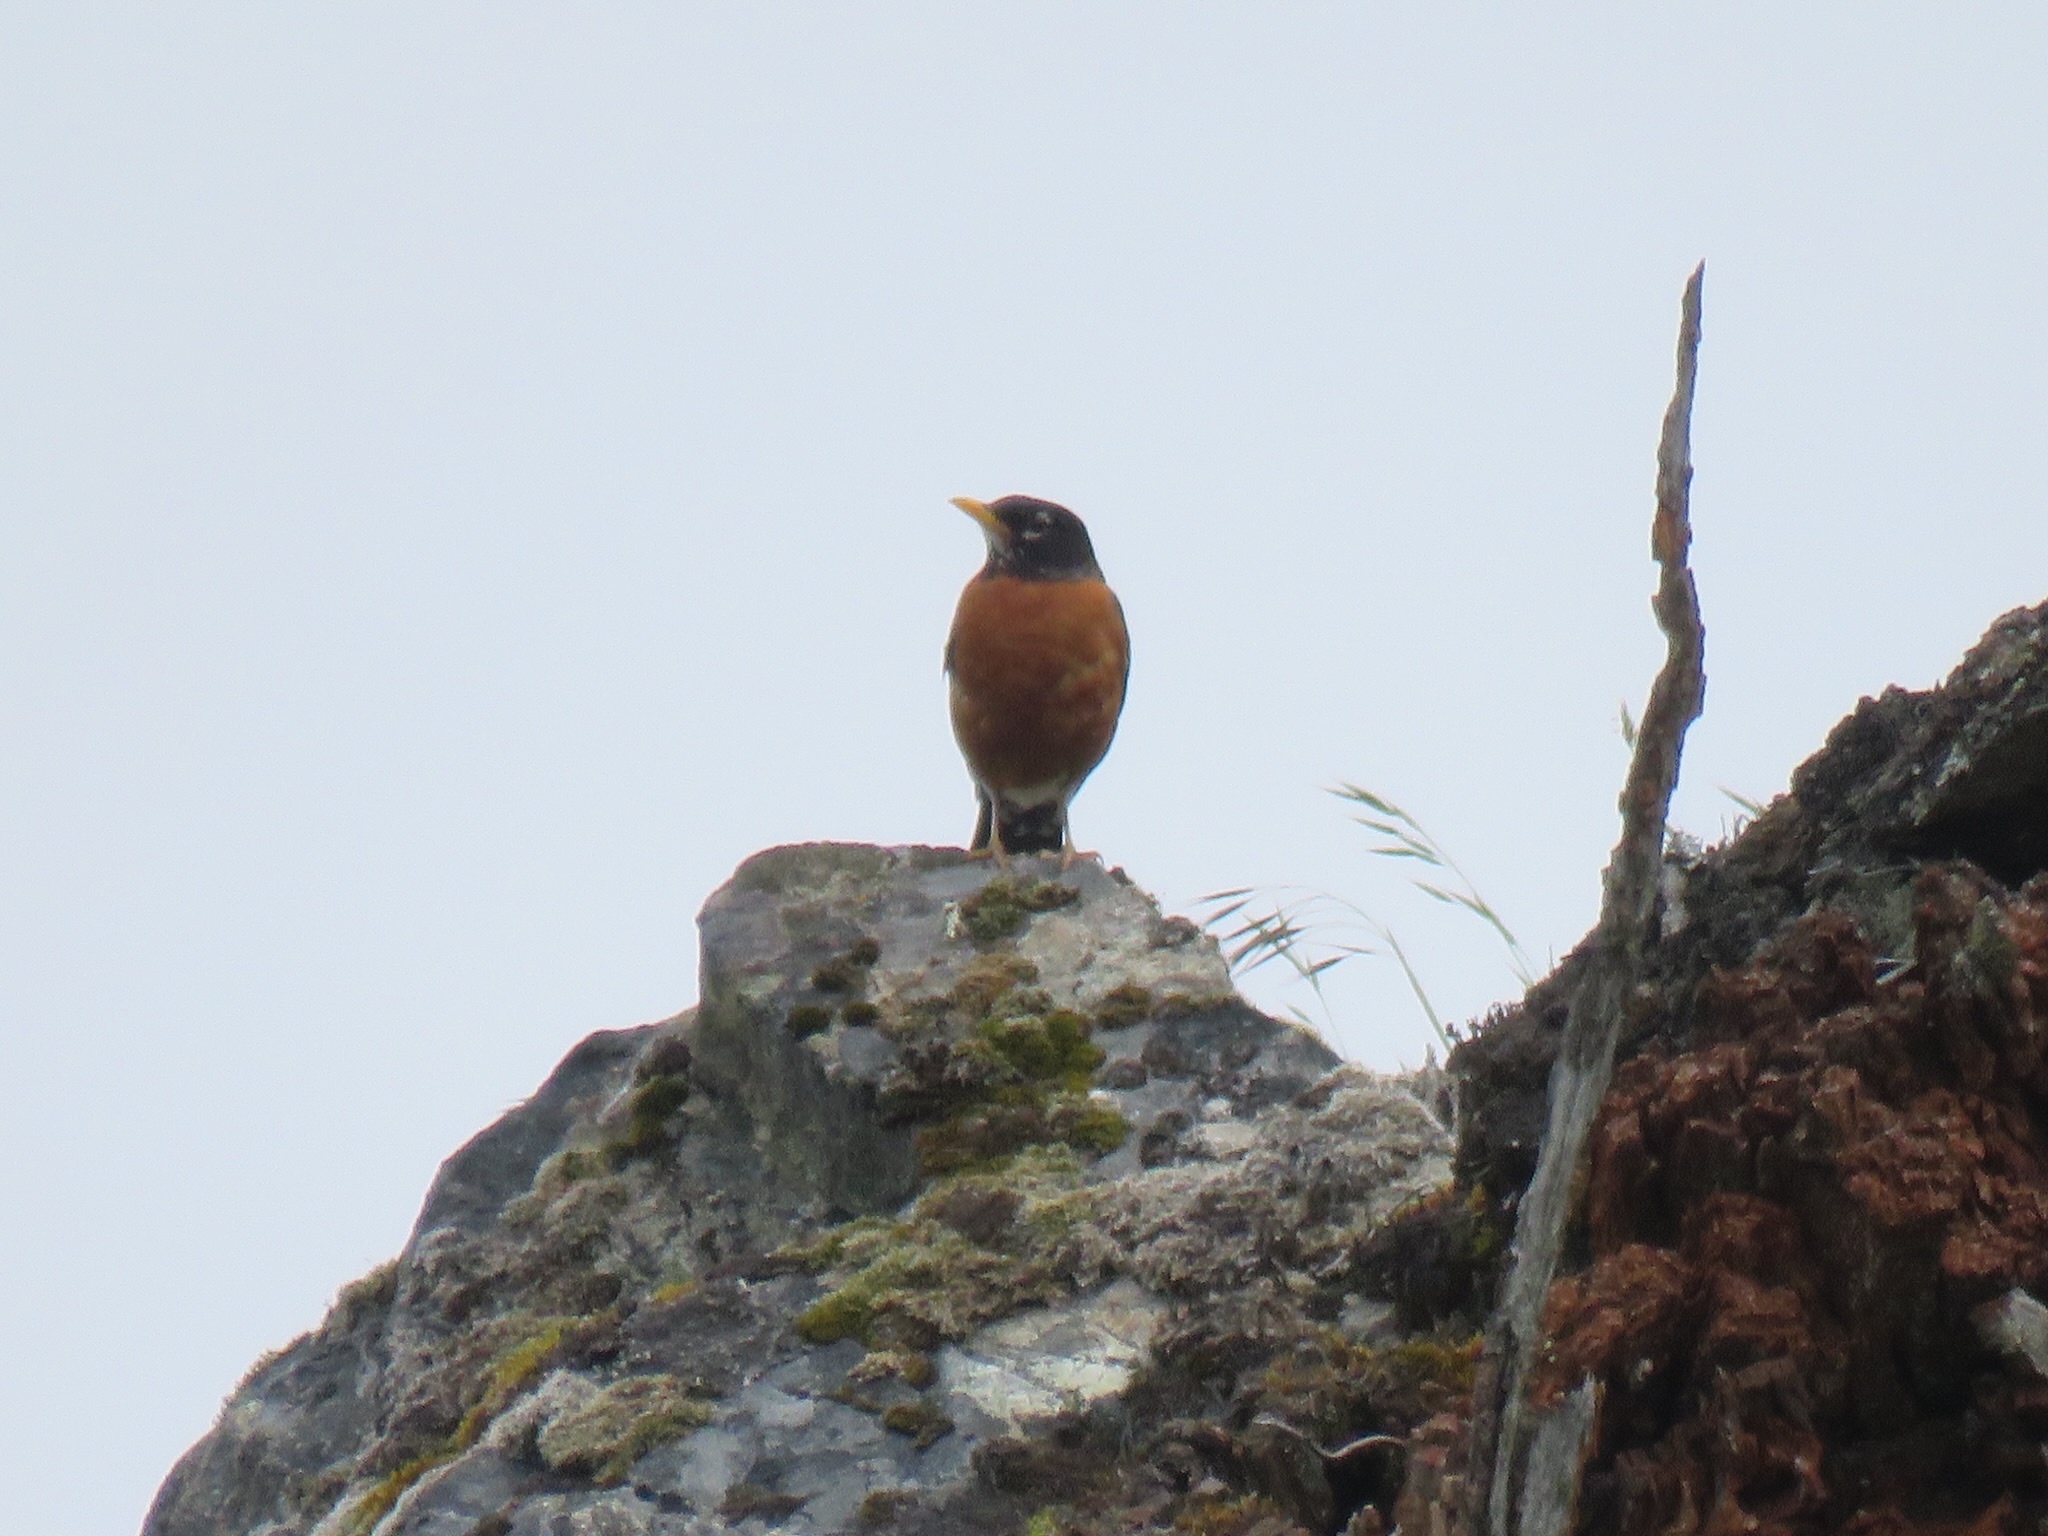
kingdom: Animalia
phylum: Chordata
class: Aves
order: Passeriformes
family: Turdidae
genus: Turdus
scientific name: Turdus migratorius
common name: American robin
